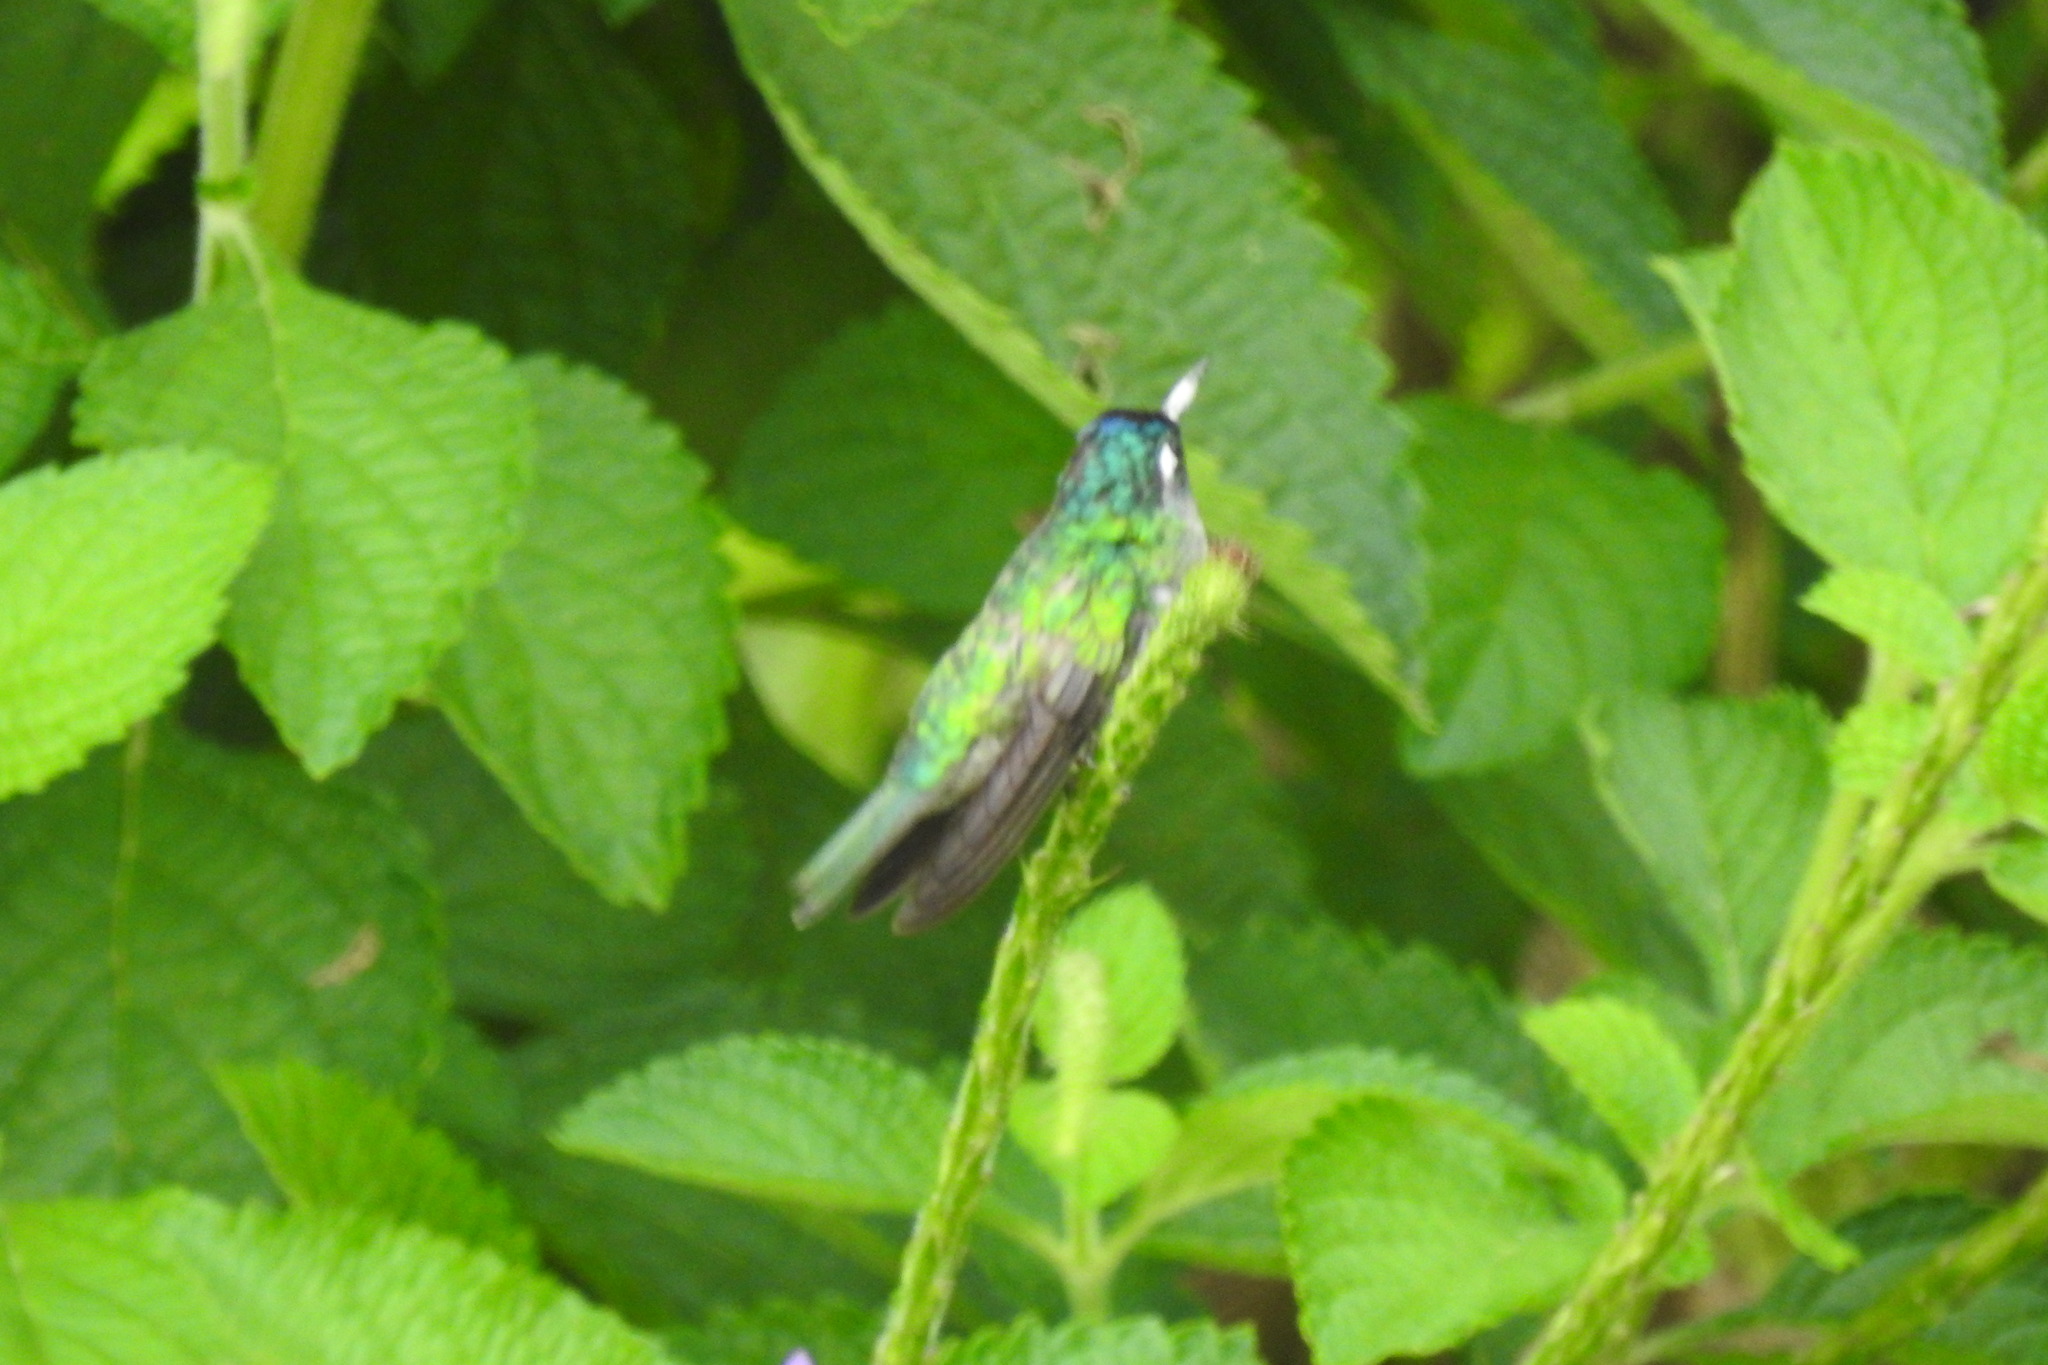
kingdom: Animalia
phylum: Chordata
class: Aves
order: Apodiformes
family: Trochilidae
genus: Klais
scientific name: Klais guimeti
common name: Violet-headed hummingbird
